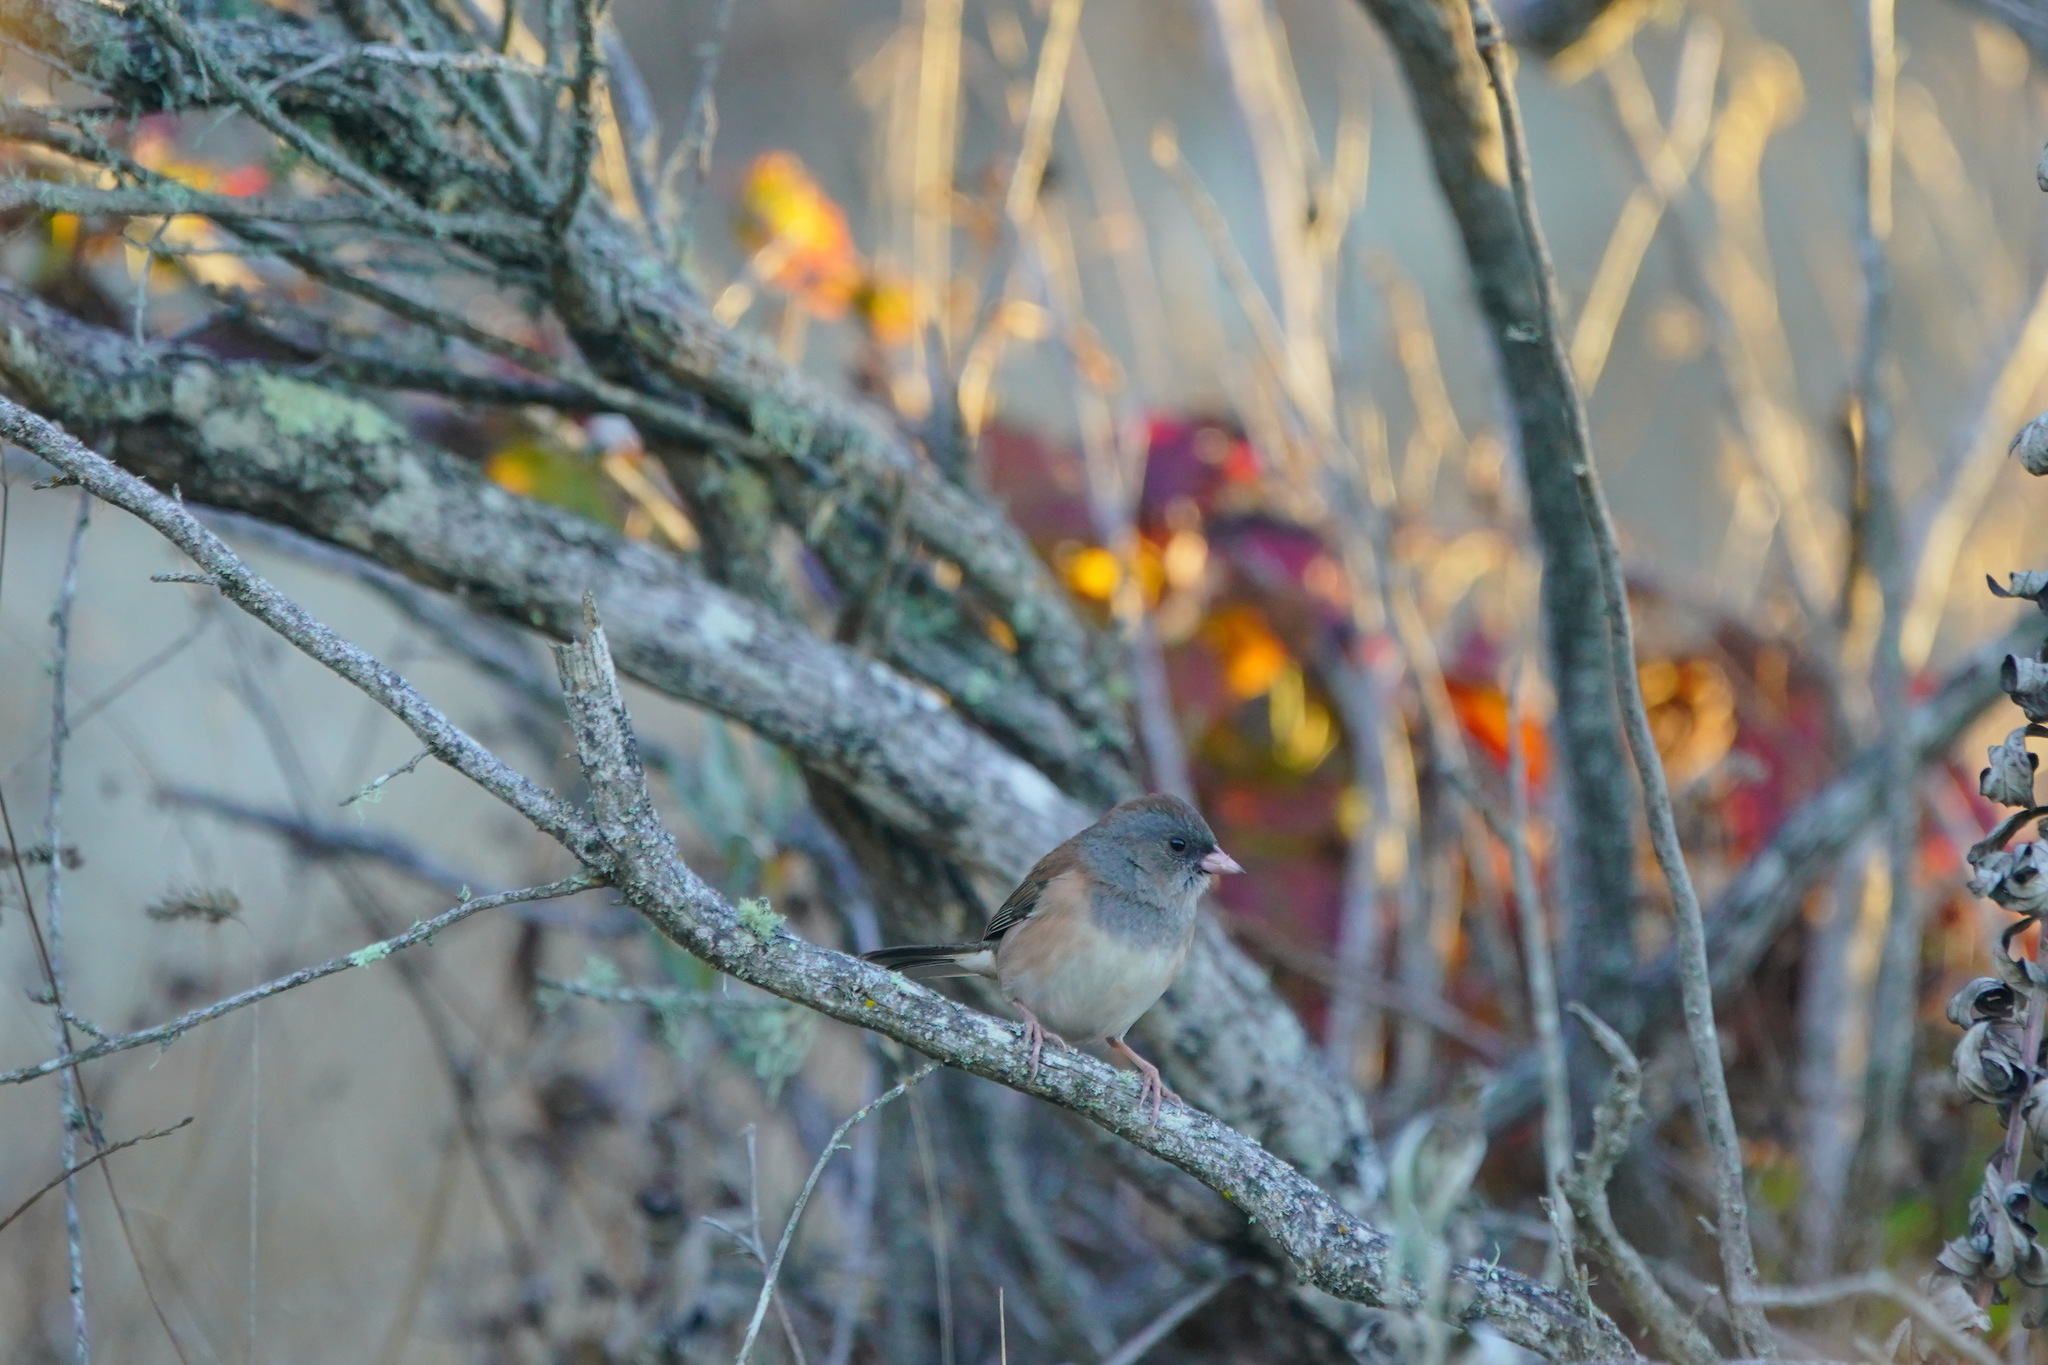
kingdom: Animalia
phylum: Chordata
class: Aves
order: Passeriformes
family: Passerellidae
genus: Junco
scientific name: Junco hyemalis
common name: Dark-eyed junco
